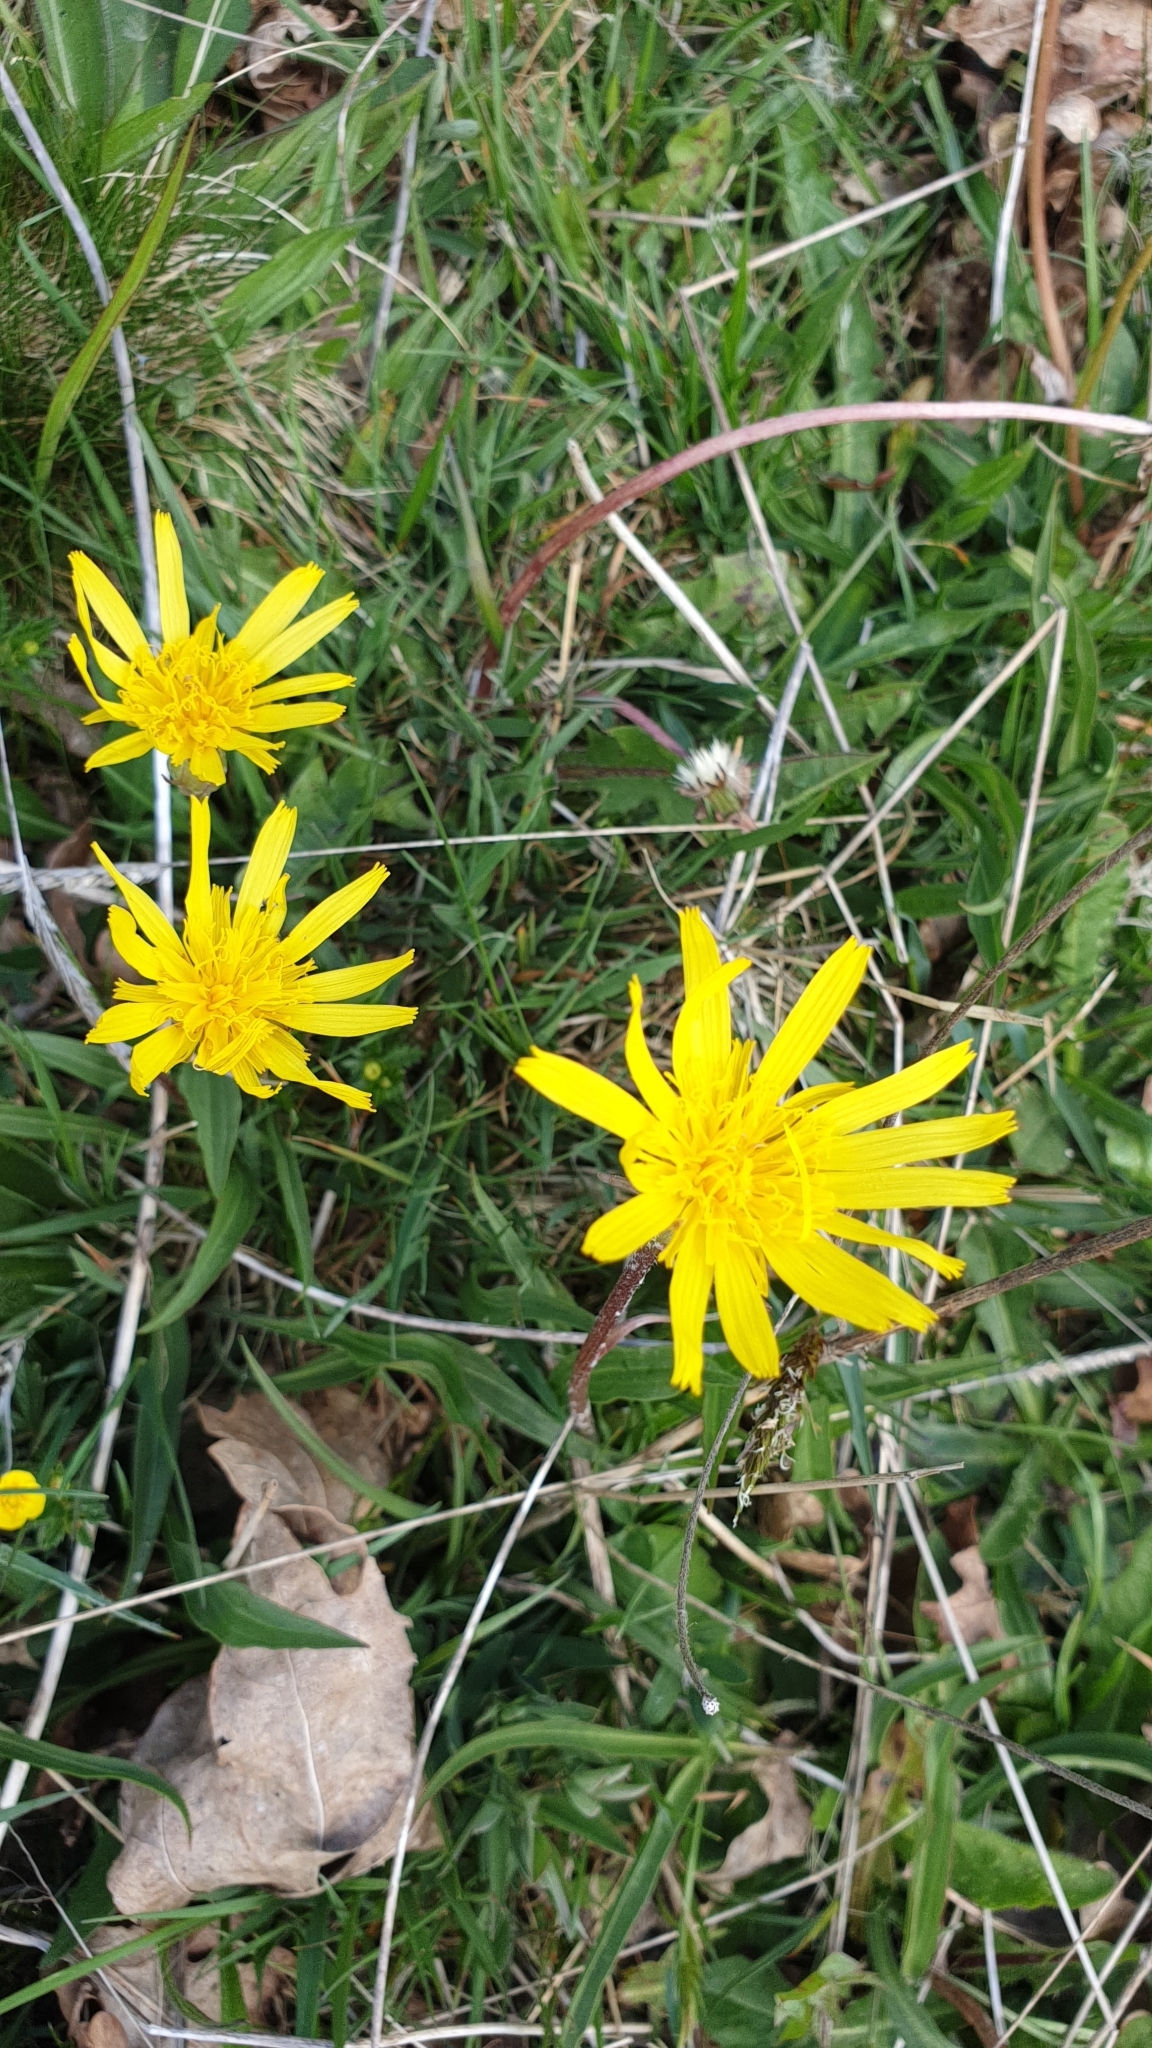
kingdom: Plantae
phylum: Tracheophyta
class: Magnoliopsida
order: Asterales
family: Asteraceae
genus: Scorzonera
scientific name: Scorzonera humilis
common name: Viper's-grass
